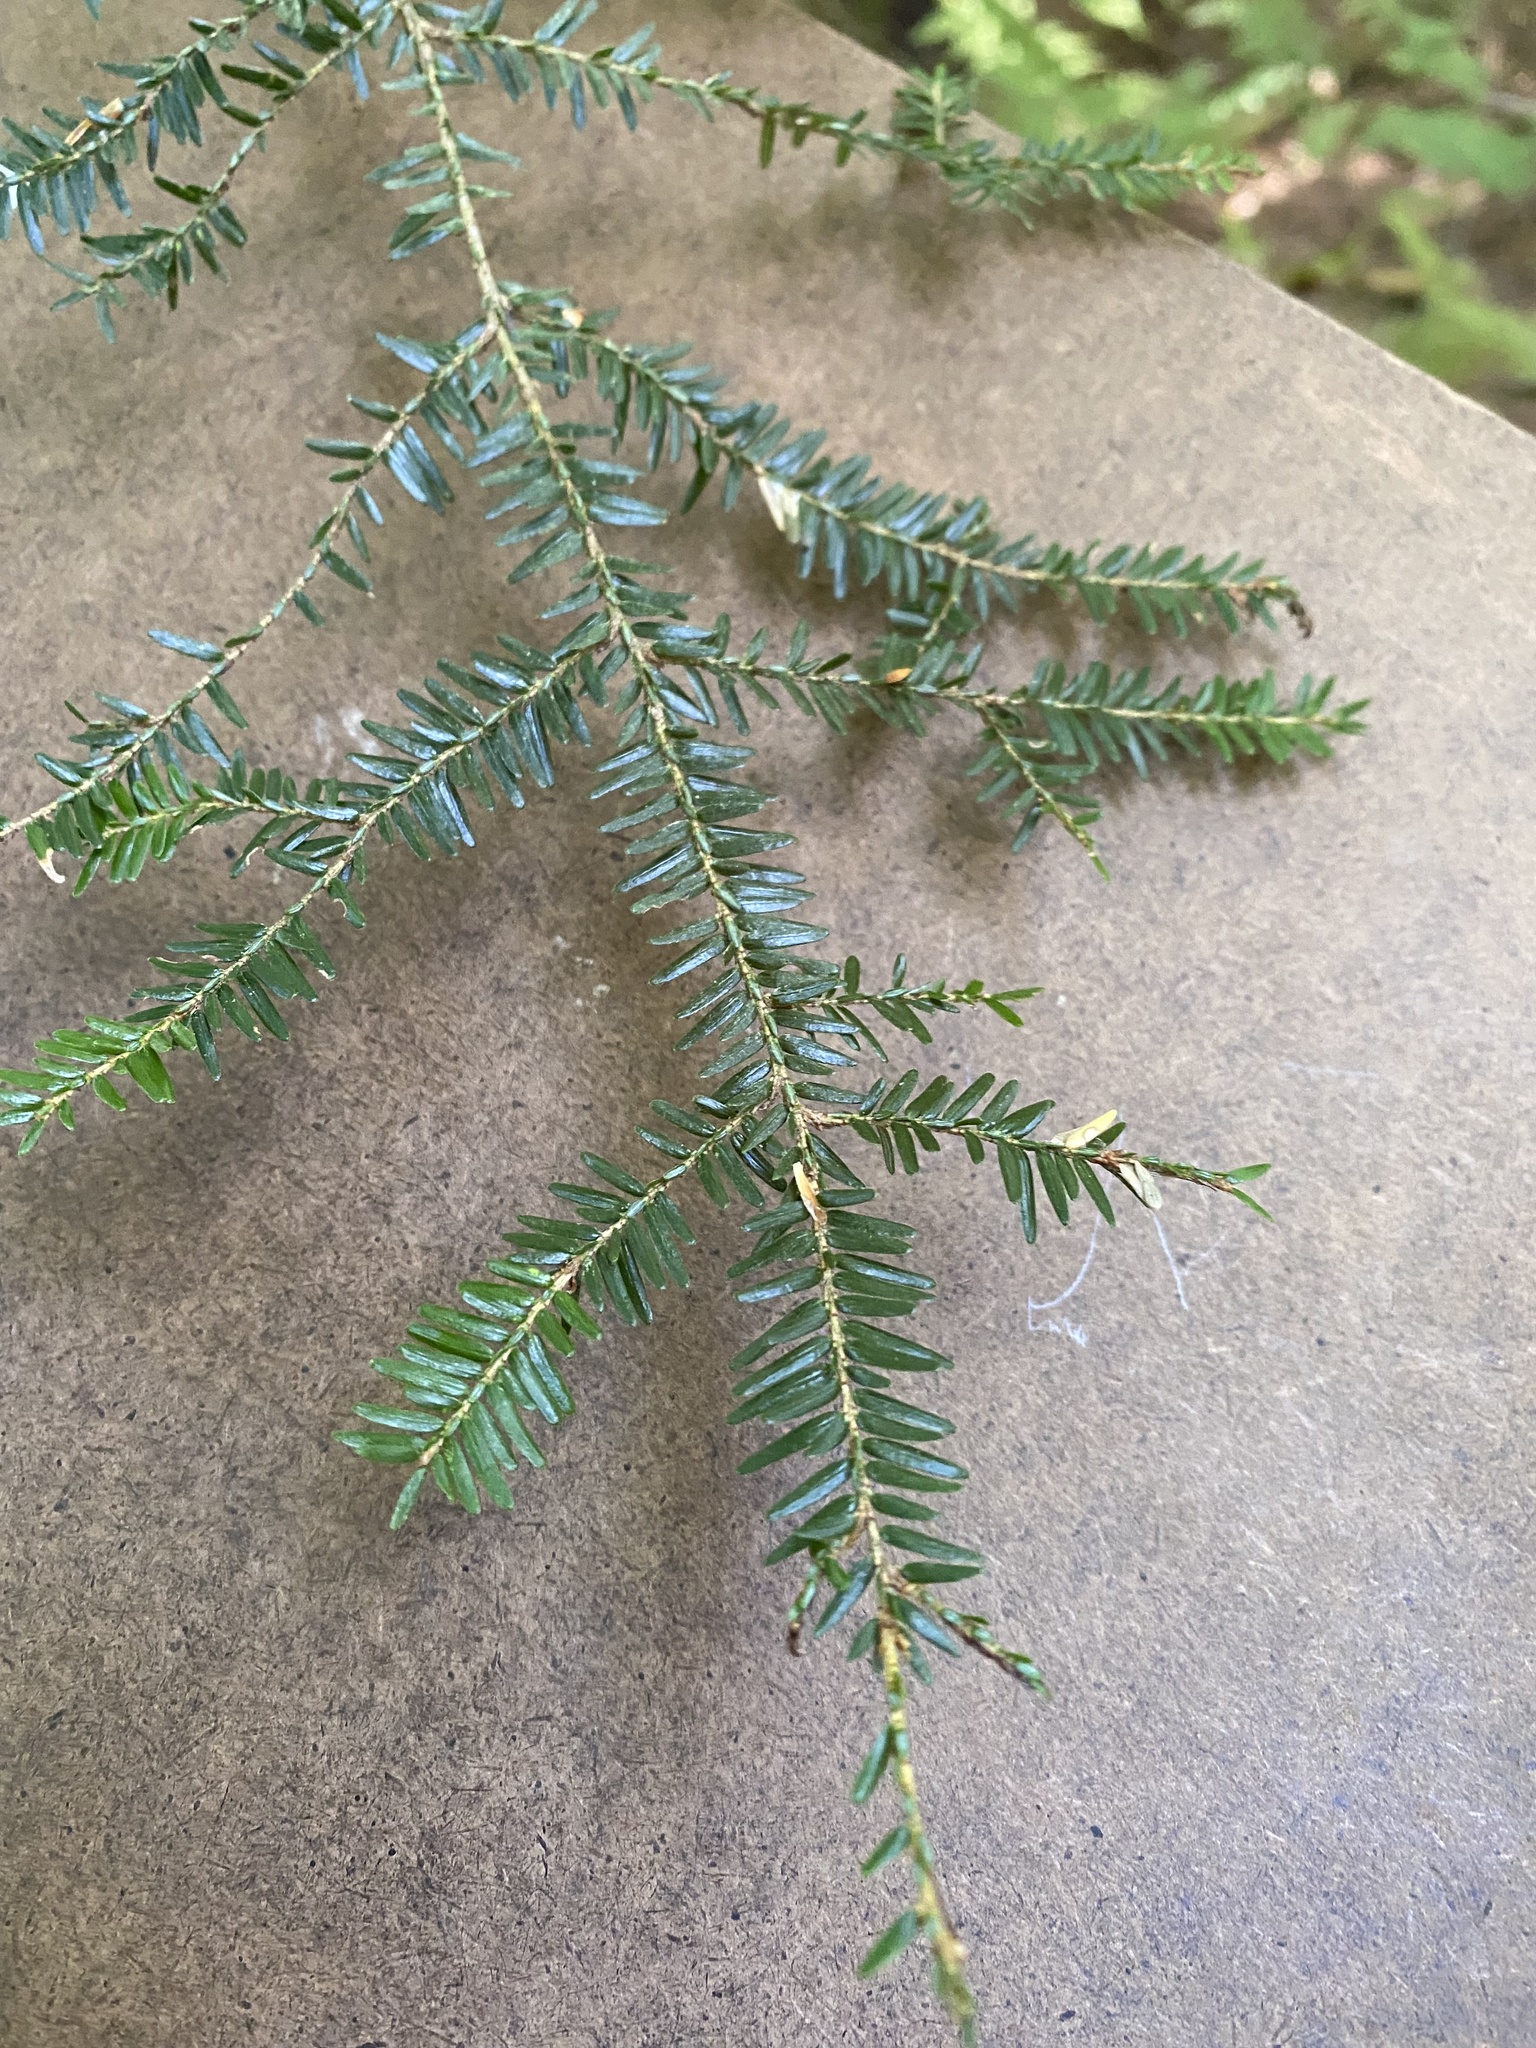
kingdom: Plantae
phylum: Tracheophyta
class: Pinopsida
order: Pinales
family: Pinaceae
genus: Tsuga
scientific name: Tsuga canadensis
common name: Eastern hemlock
